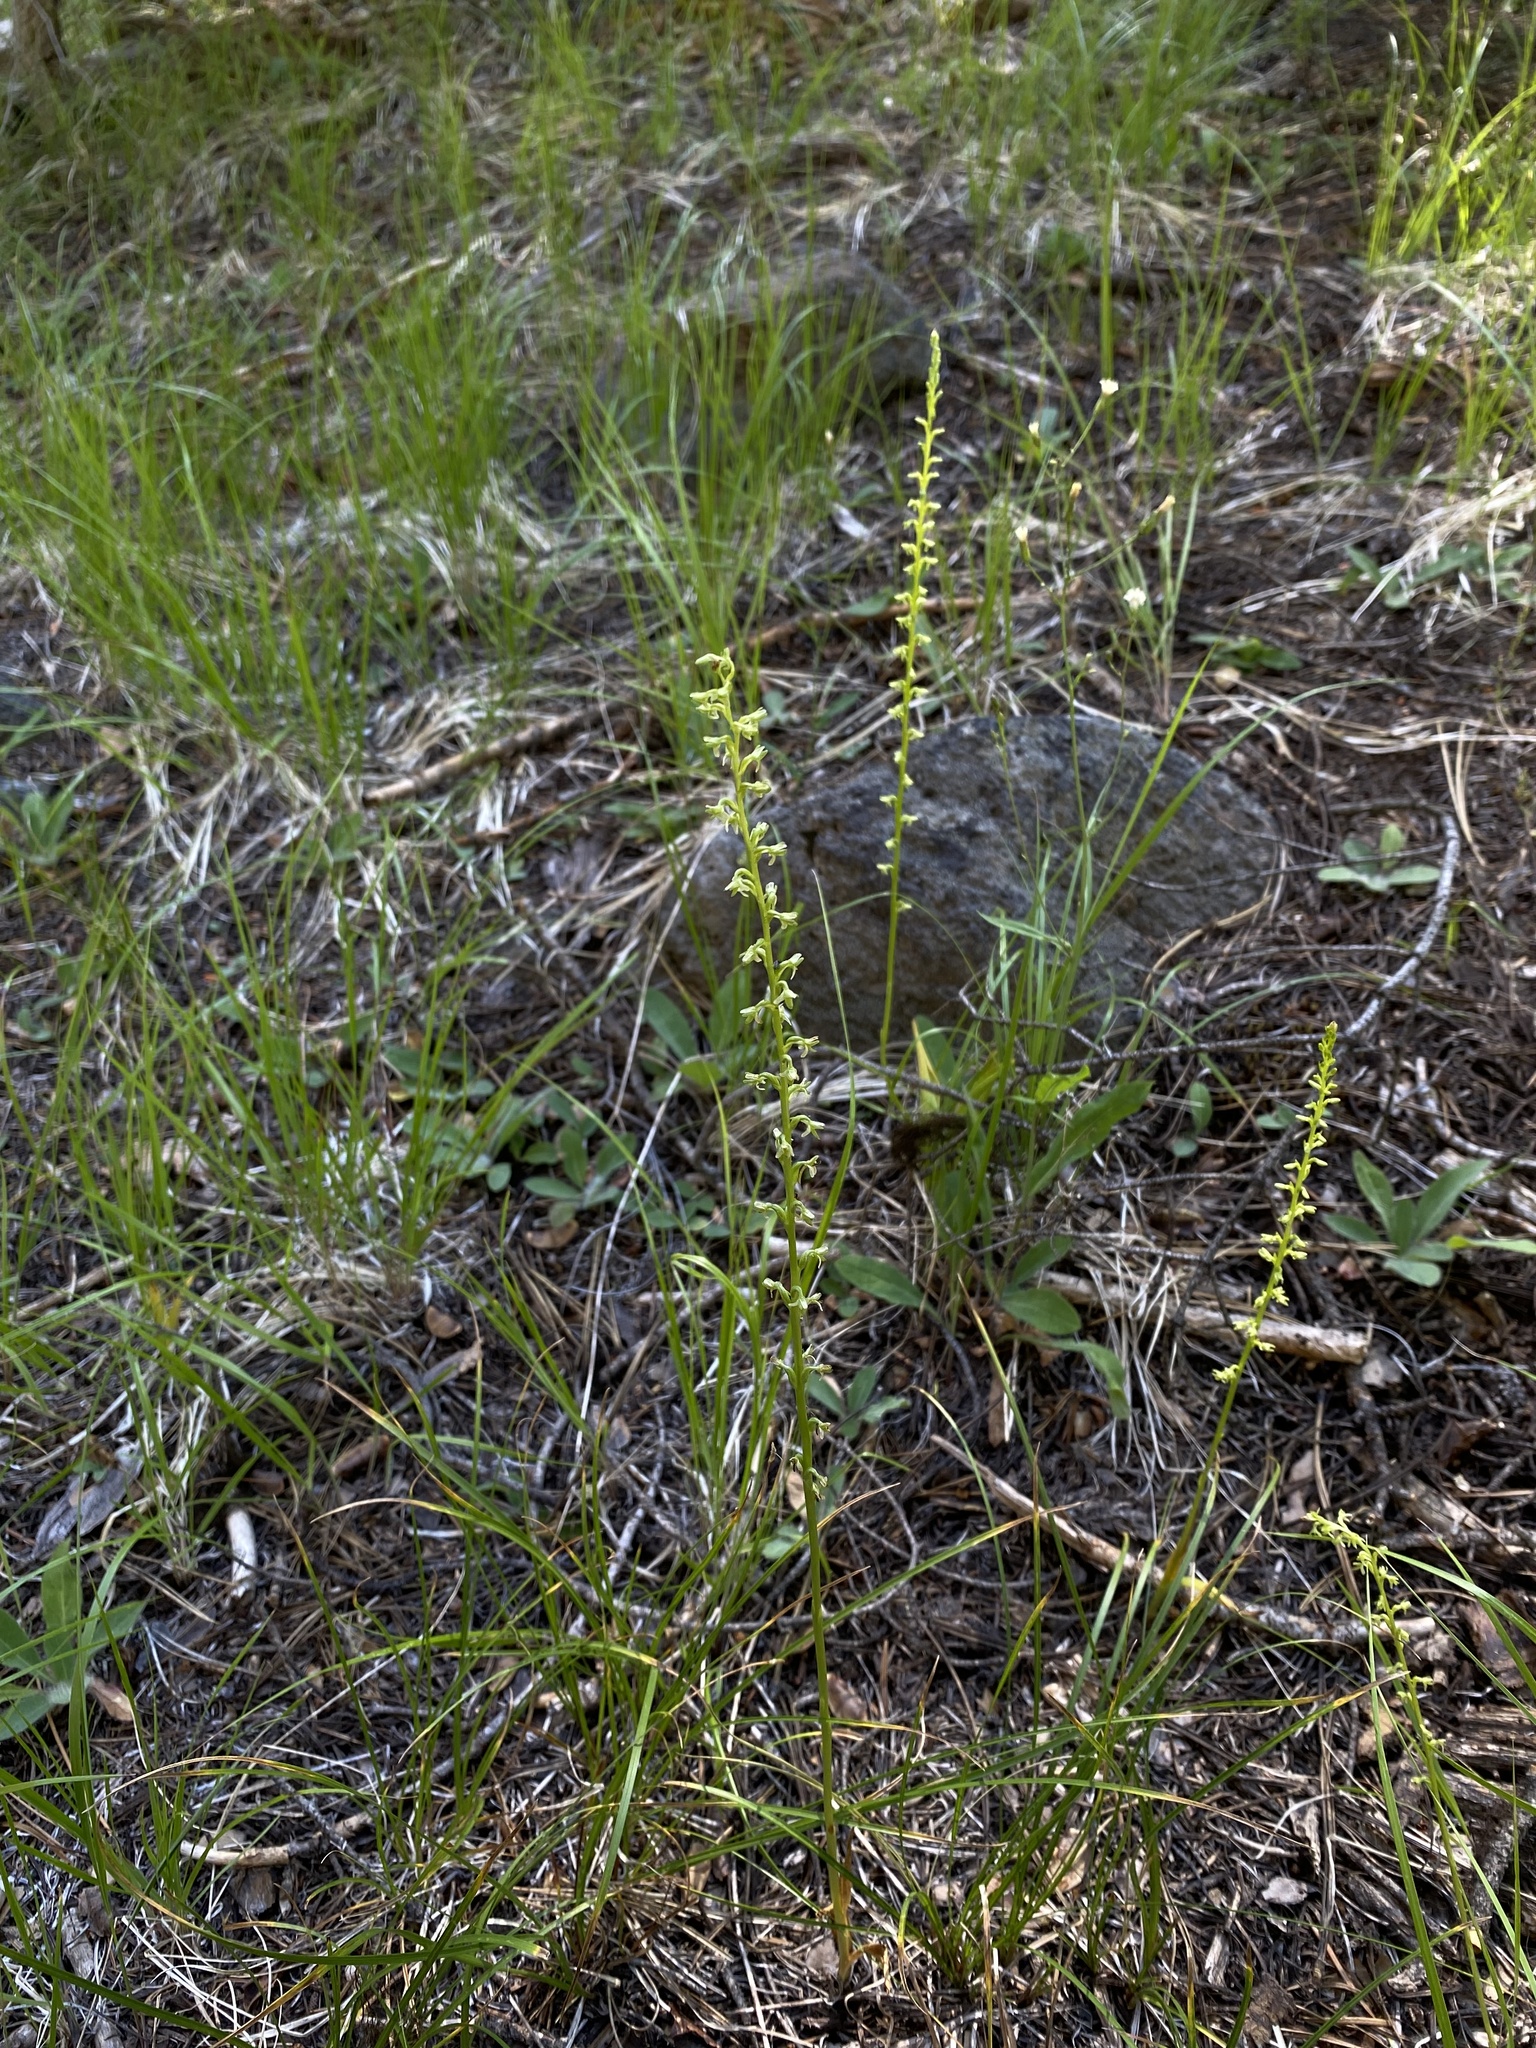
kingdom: Plantae
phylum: Tracheophyta
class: Liliopsida
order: Asparagales
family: Orchidaceae
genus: Platanthera
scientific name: Platanthera unalascensis
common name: Alaska bog orchid
